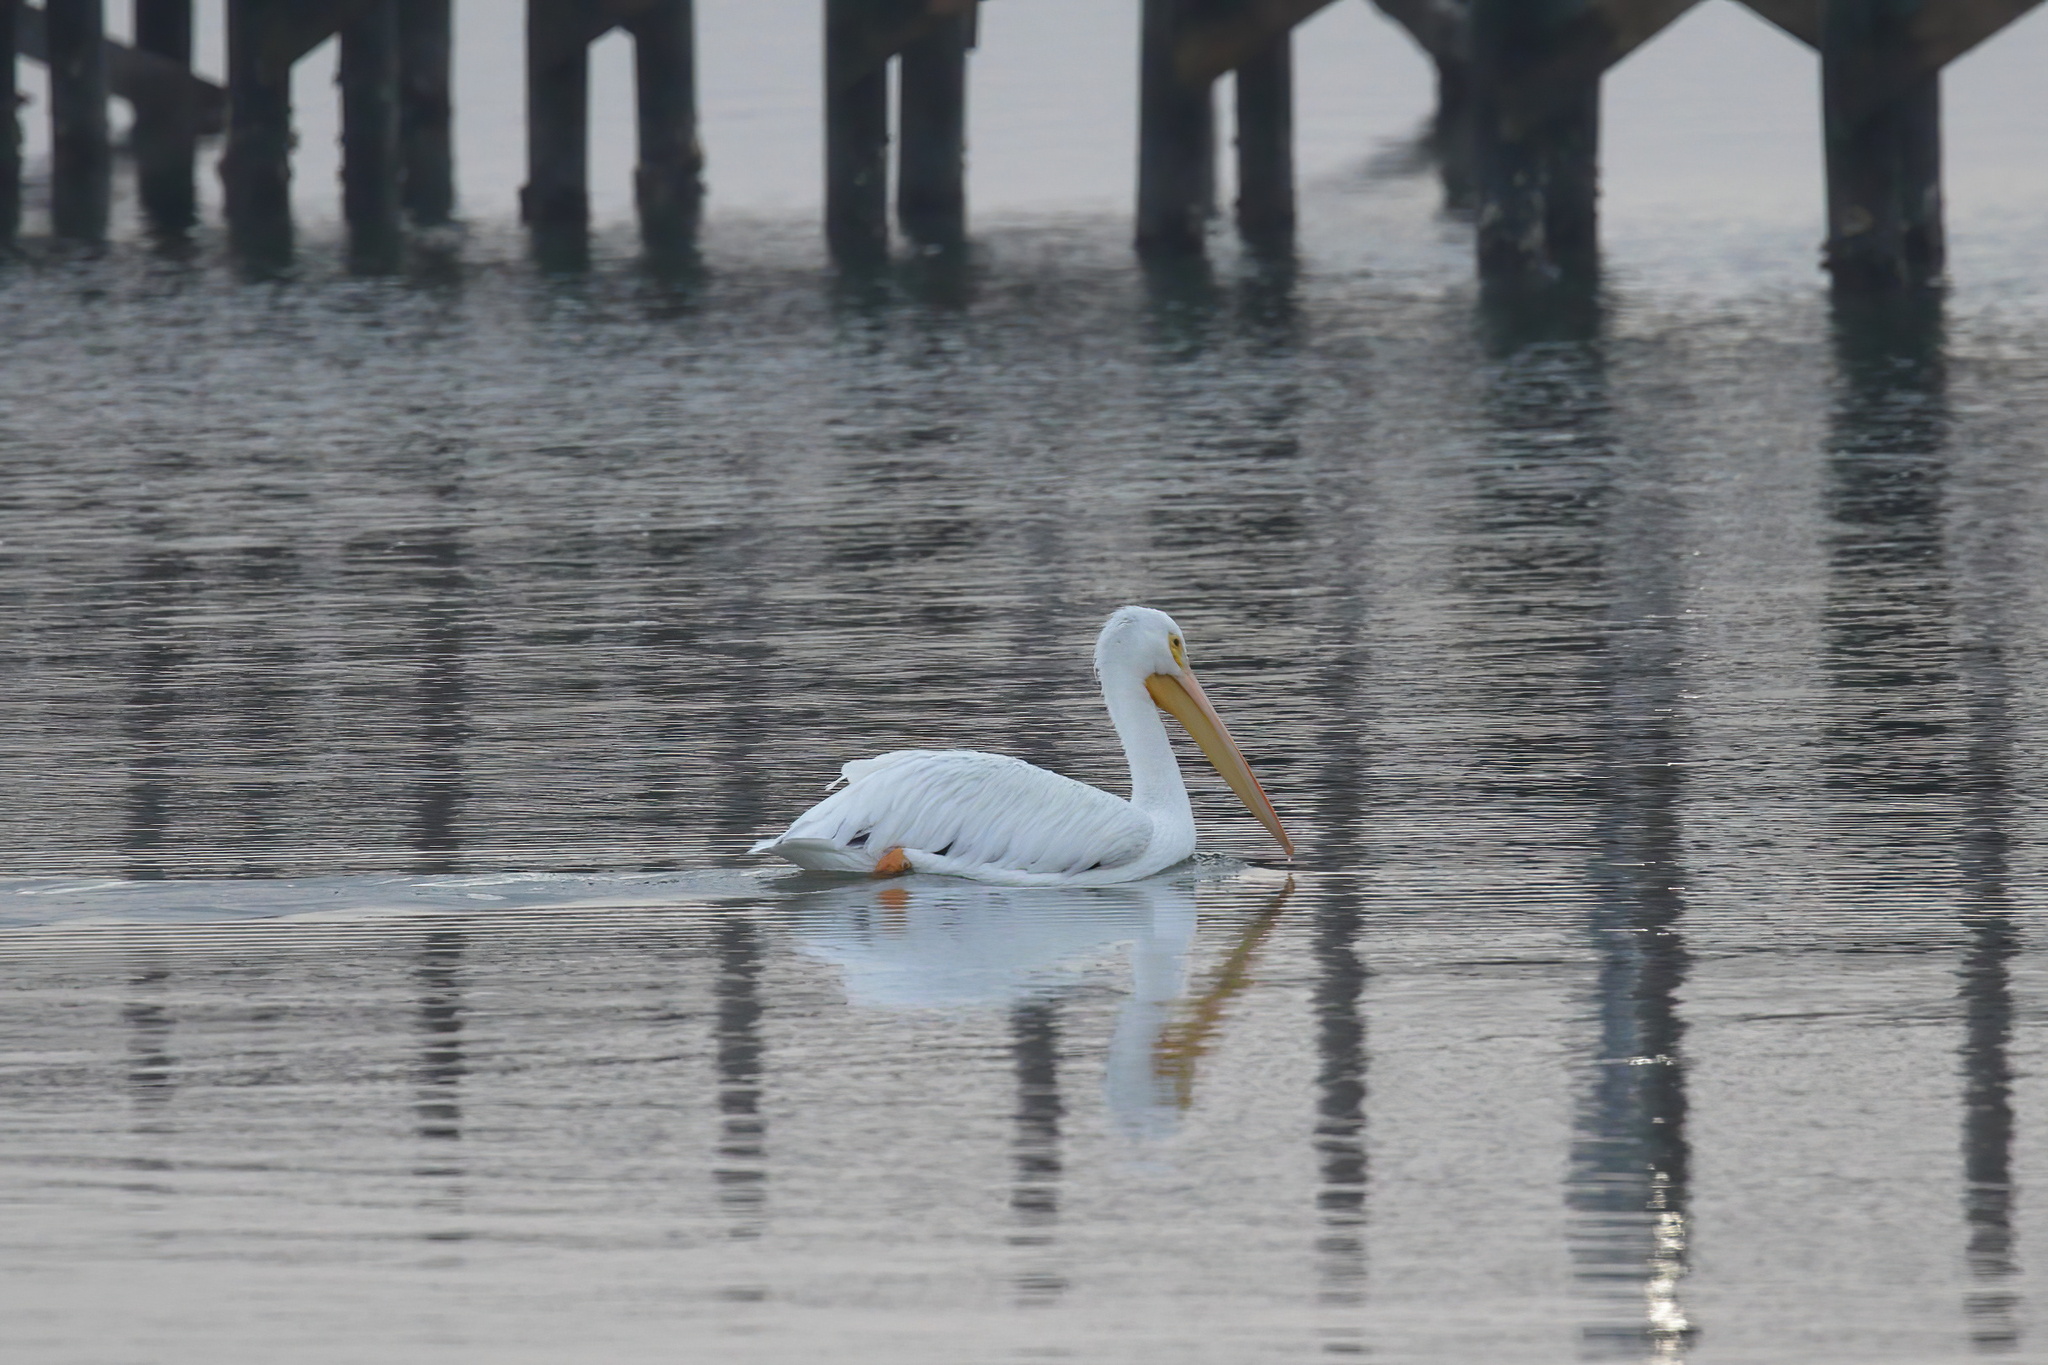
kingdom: Animalia
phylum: Chordata
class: Aves
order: Pelecaniformes
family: Pelecanidae
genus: Pelecanus
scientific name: Pelecanus erythrorhynchos
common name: American white pelican
